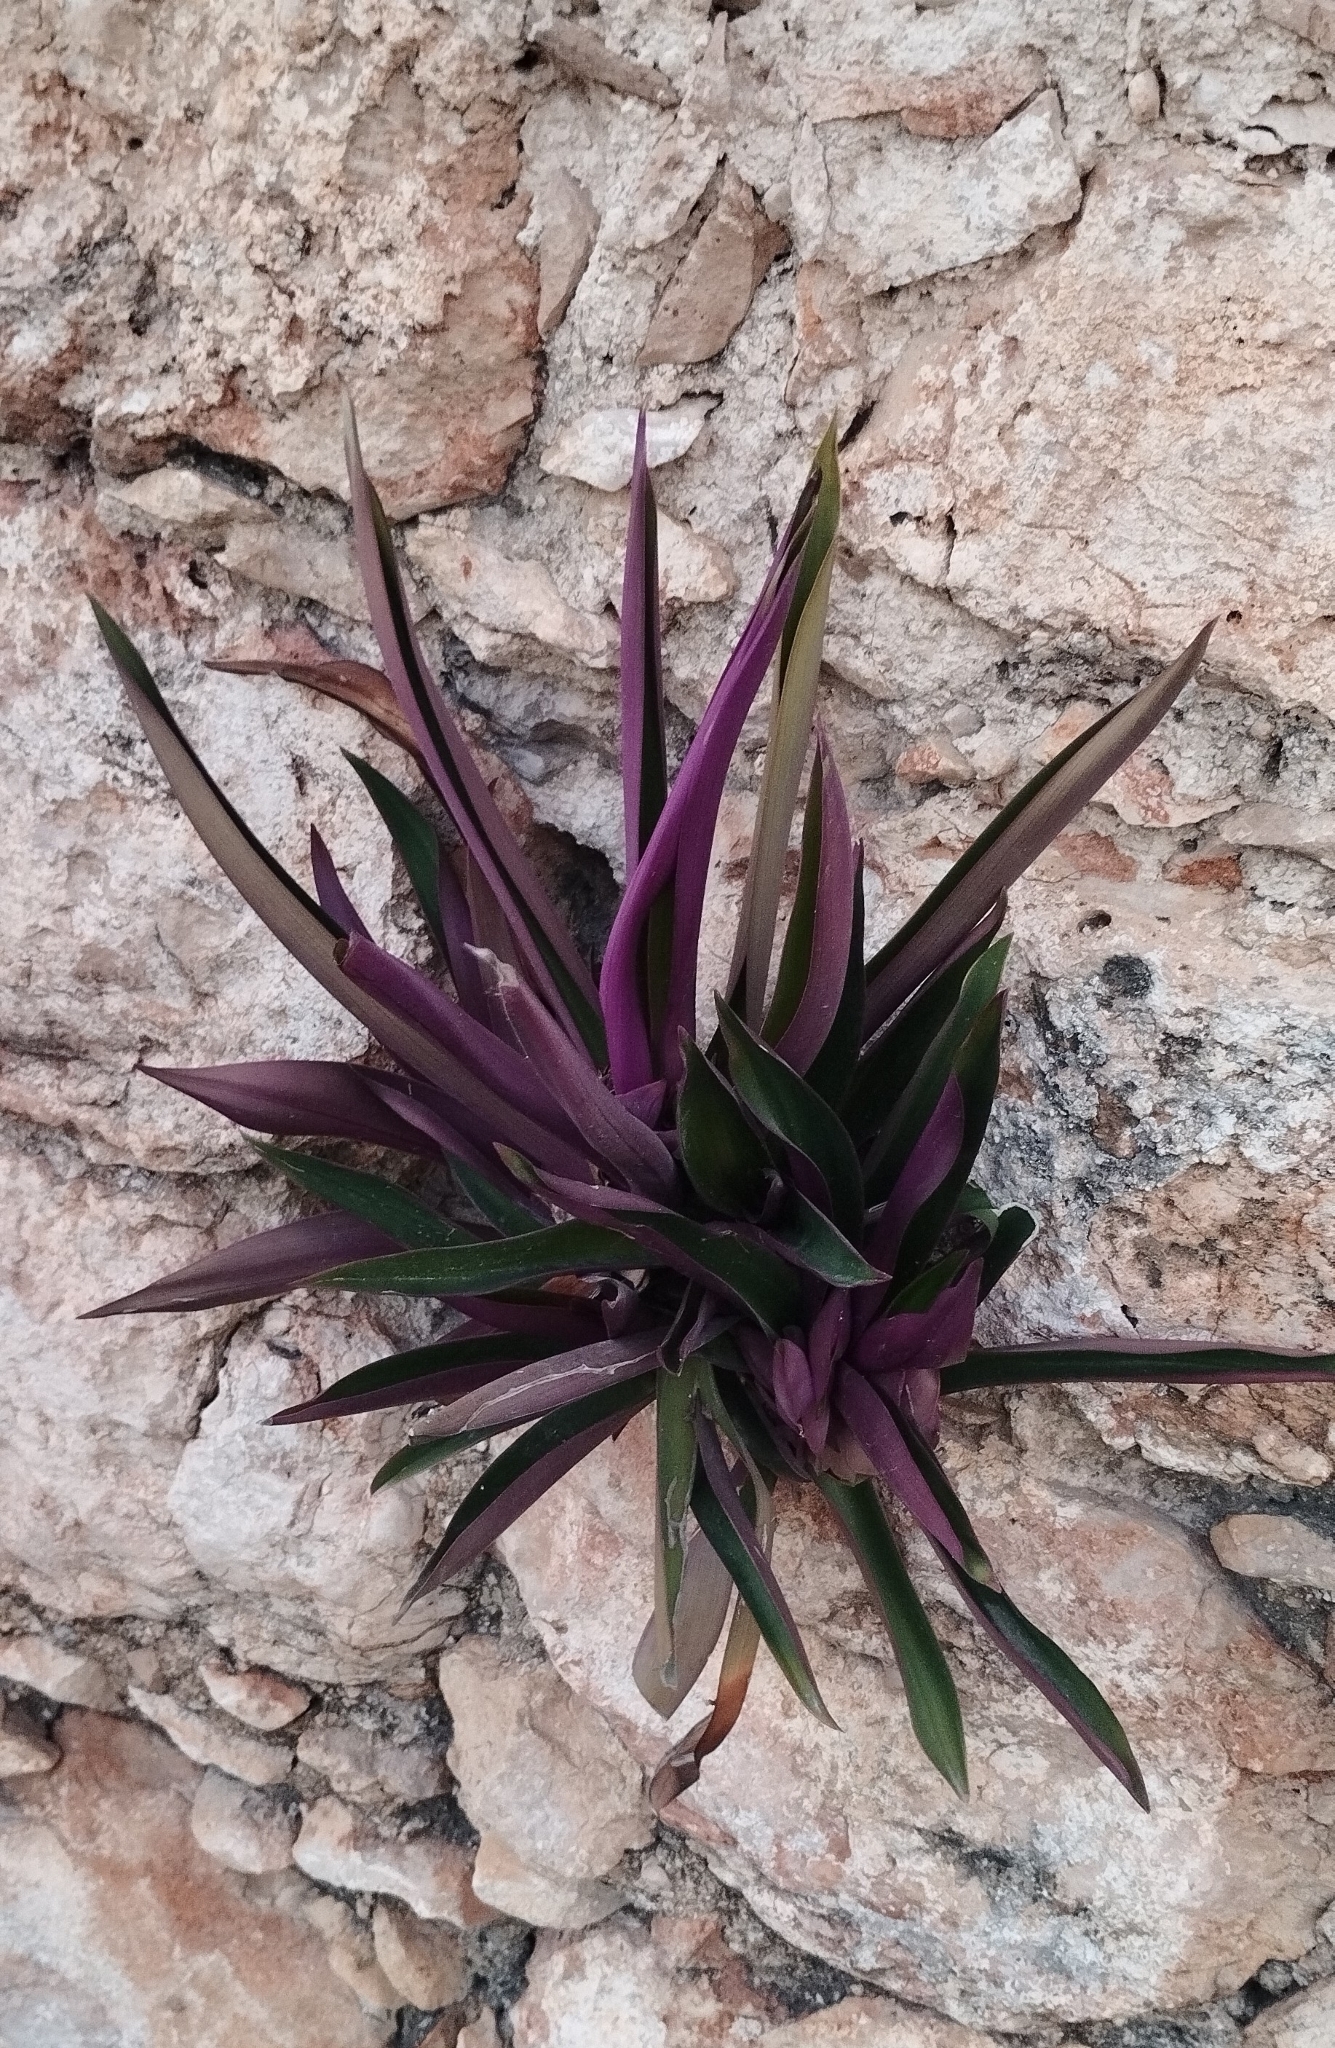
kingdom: Plantae
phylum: Tracheophyta
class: Liliopsida
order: Commelinales
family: Commelinaceae
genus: Tradescantia
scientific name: Tradescantia spathacea
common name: Boatlily
